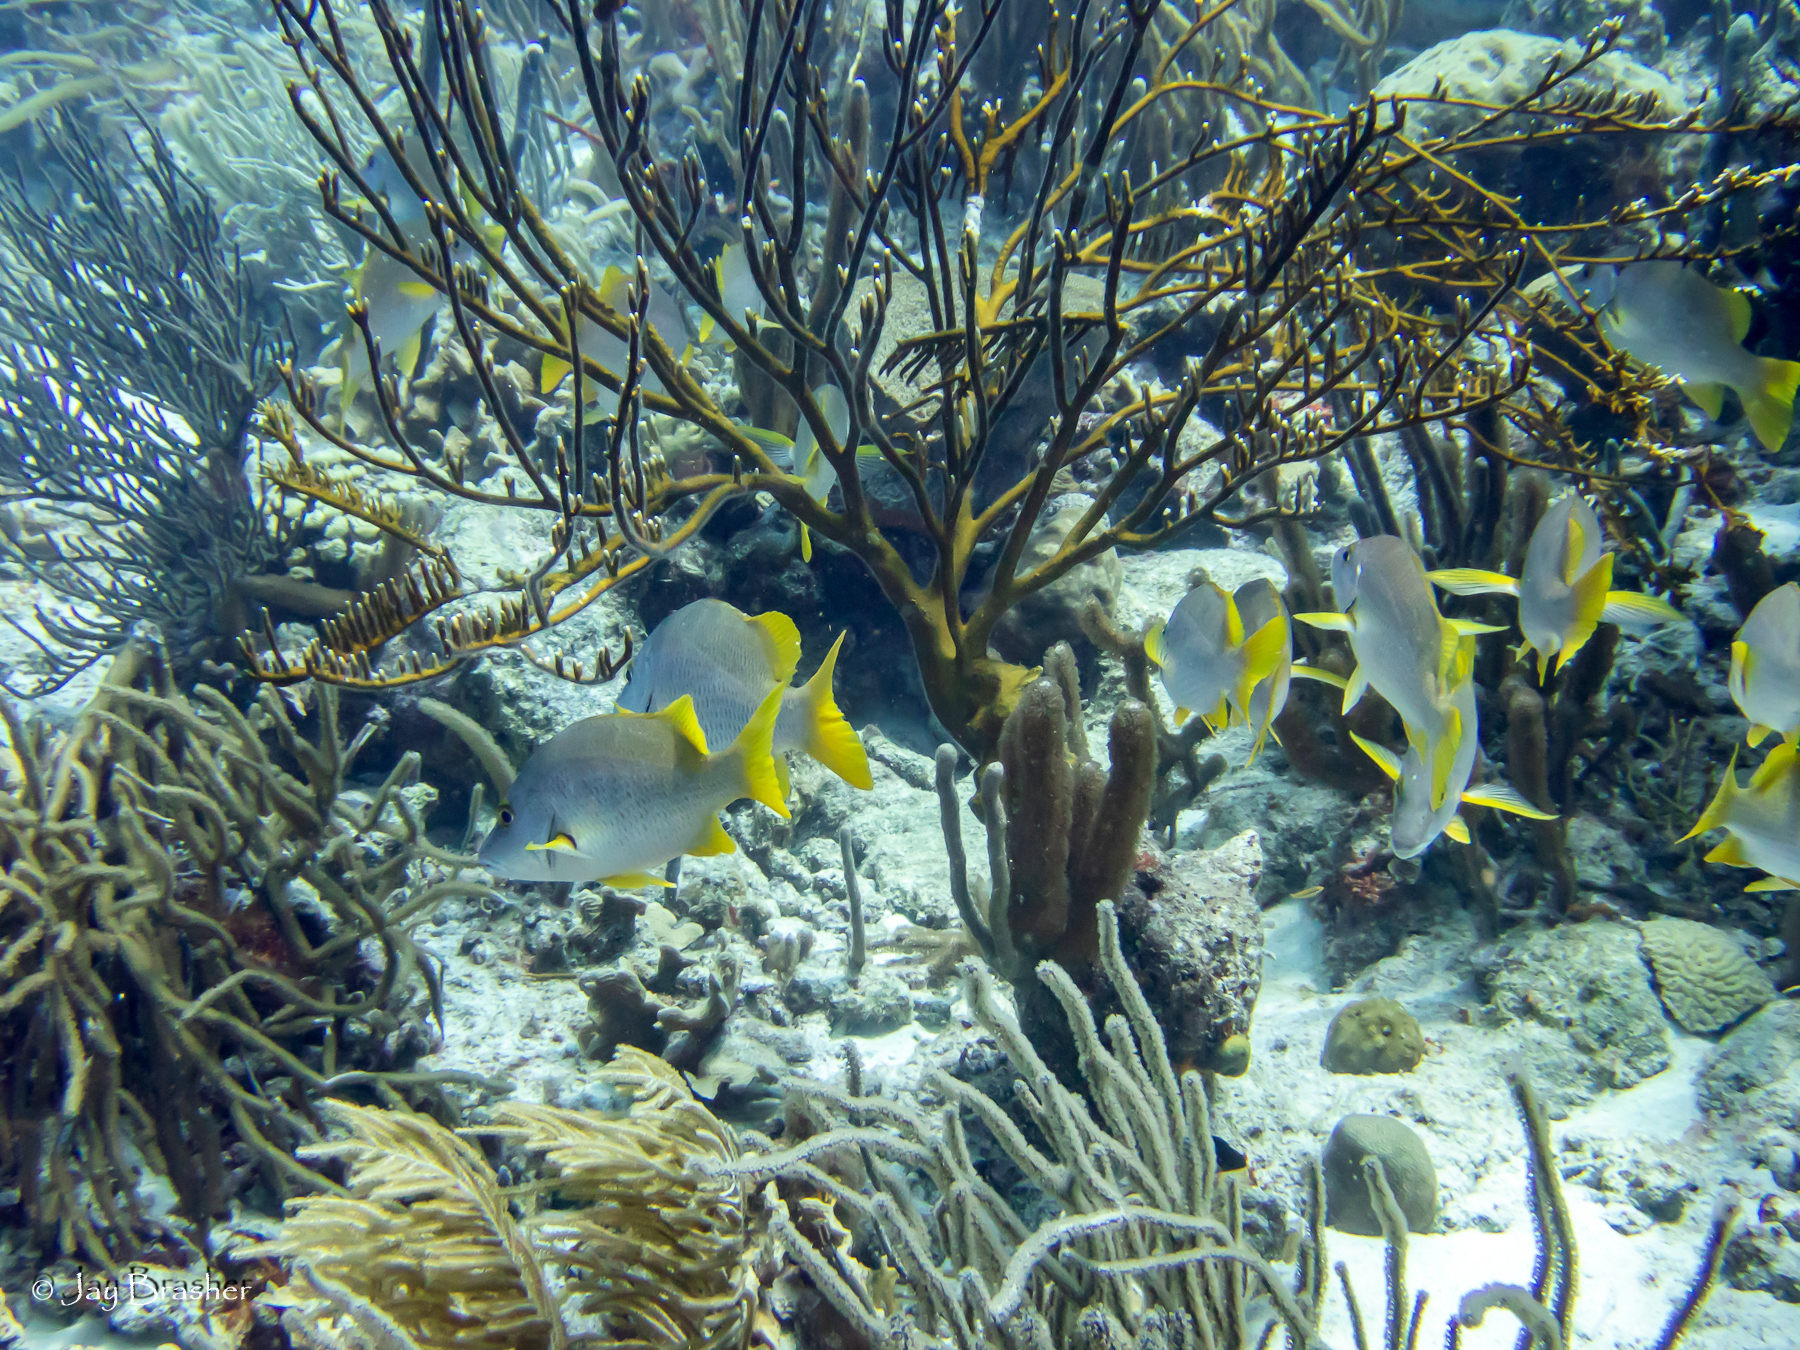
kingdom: Animalia
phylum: Chordata
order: Perciformes
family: Lutjanidae
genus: Lutjanus
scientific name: Lutjanus apodus
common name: Schoolmaster
